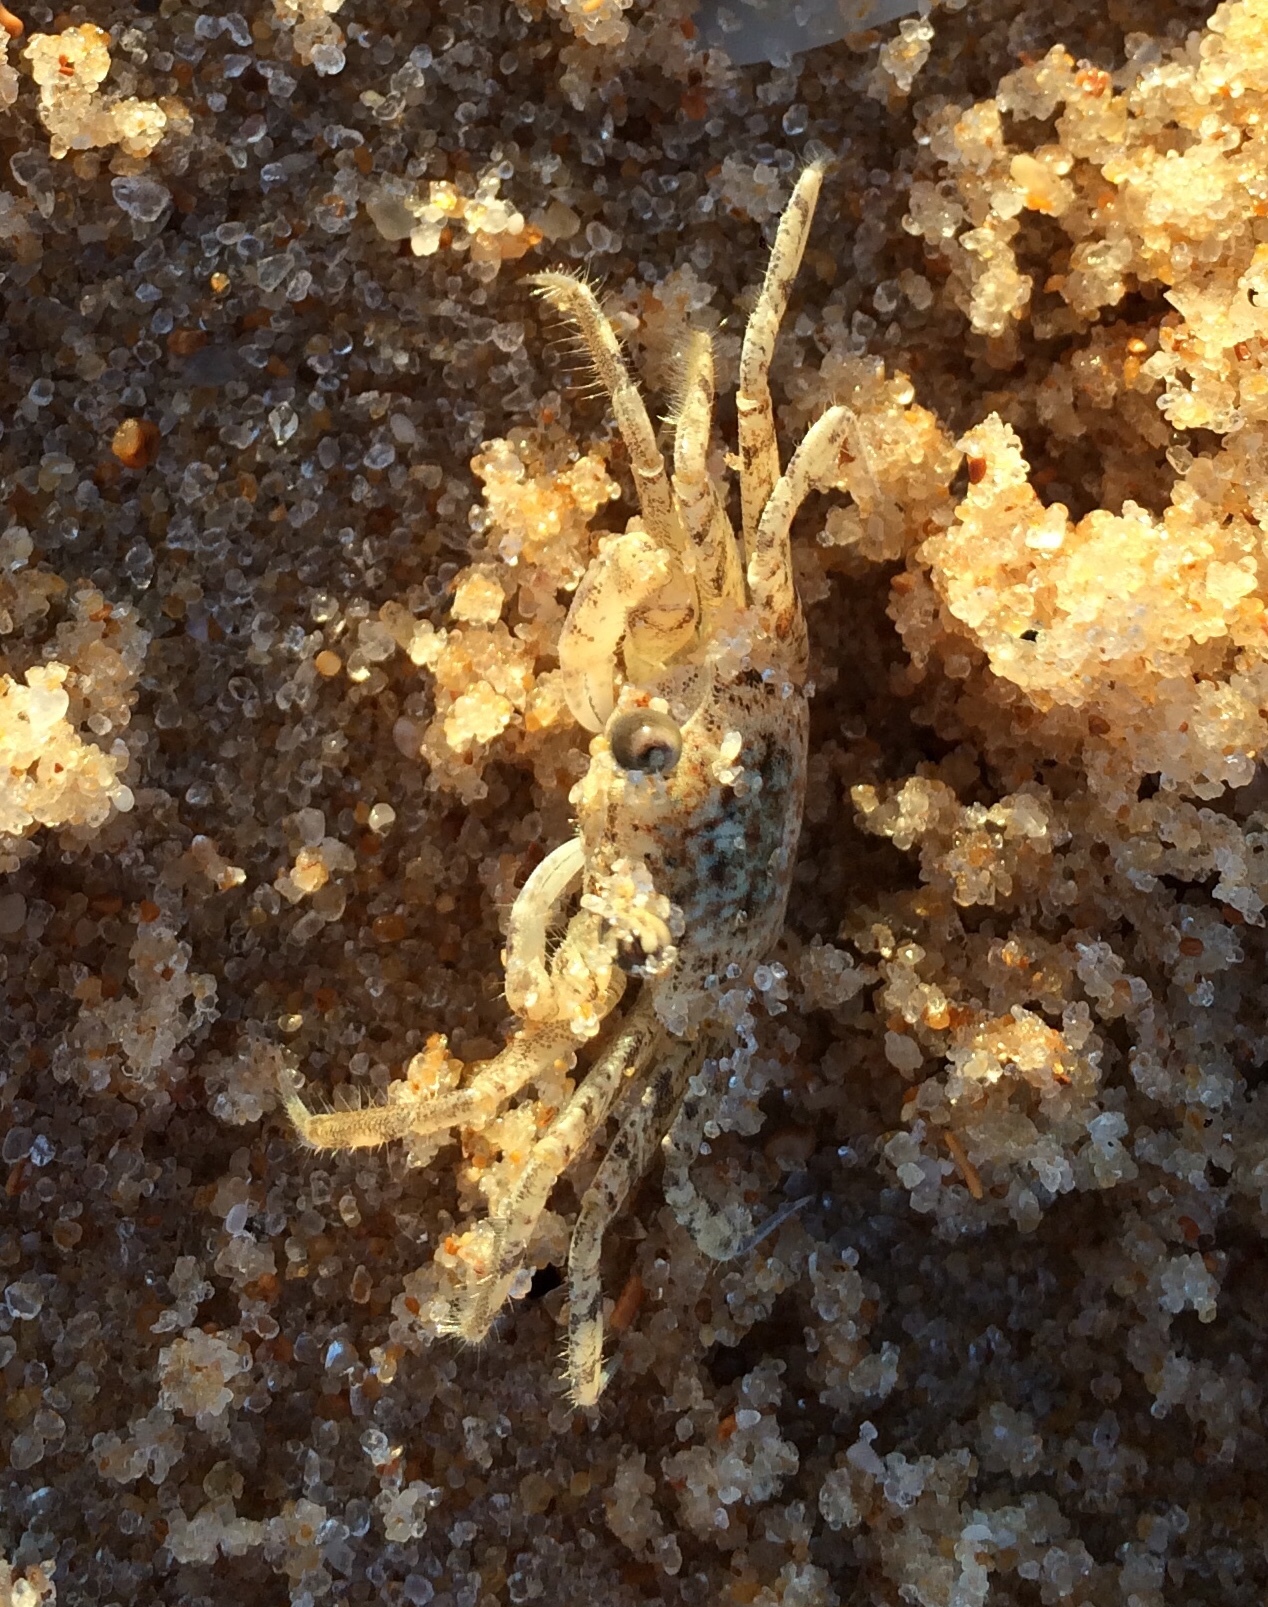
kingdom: Animalia
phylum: Arthropoda
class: Malacostraca
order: Decapoda
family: Ocypodidae
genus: Ocypode
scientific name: Ocypode quadrata
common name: Ghost crab
